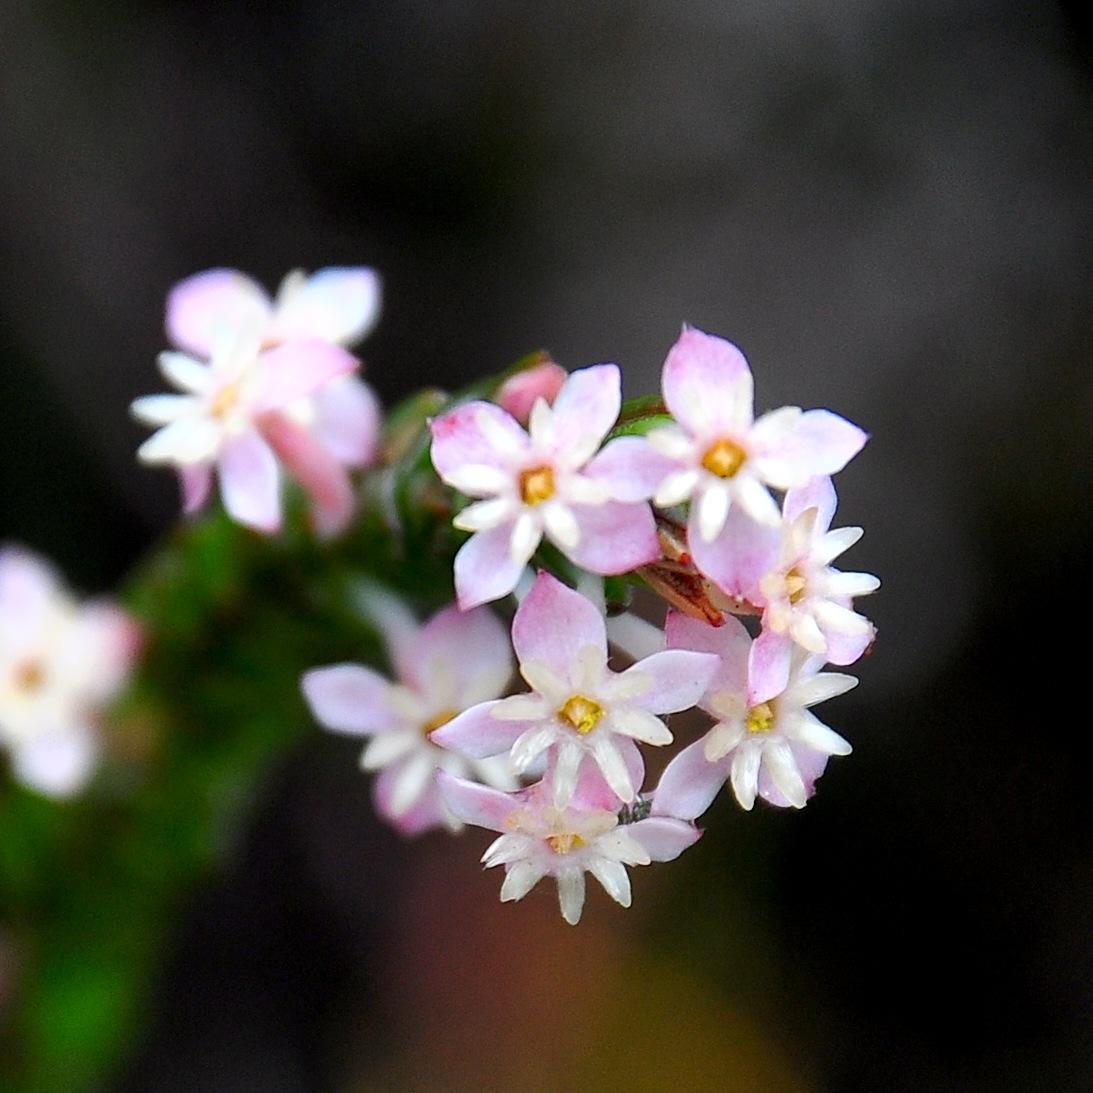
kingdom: Plantae
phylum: Tracheophyta
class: Magnoliopsida
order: Malvales
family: Thymelaeaceae
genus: Struthiola
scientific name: Struthiola ciliata
